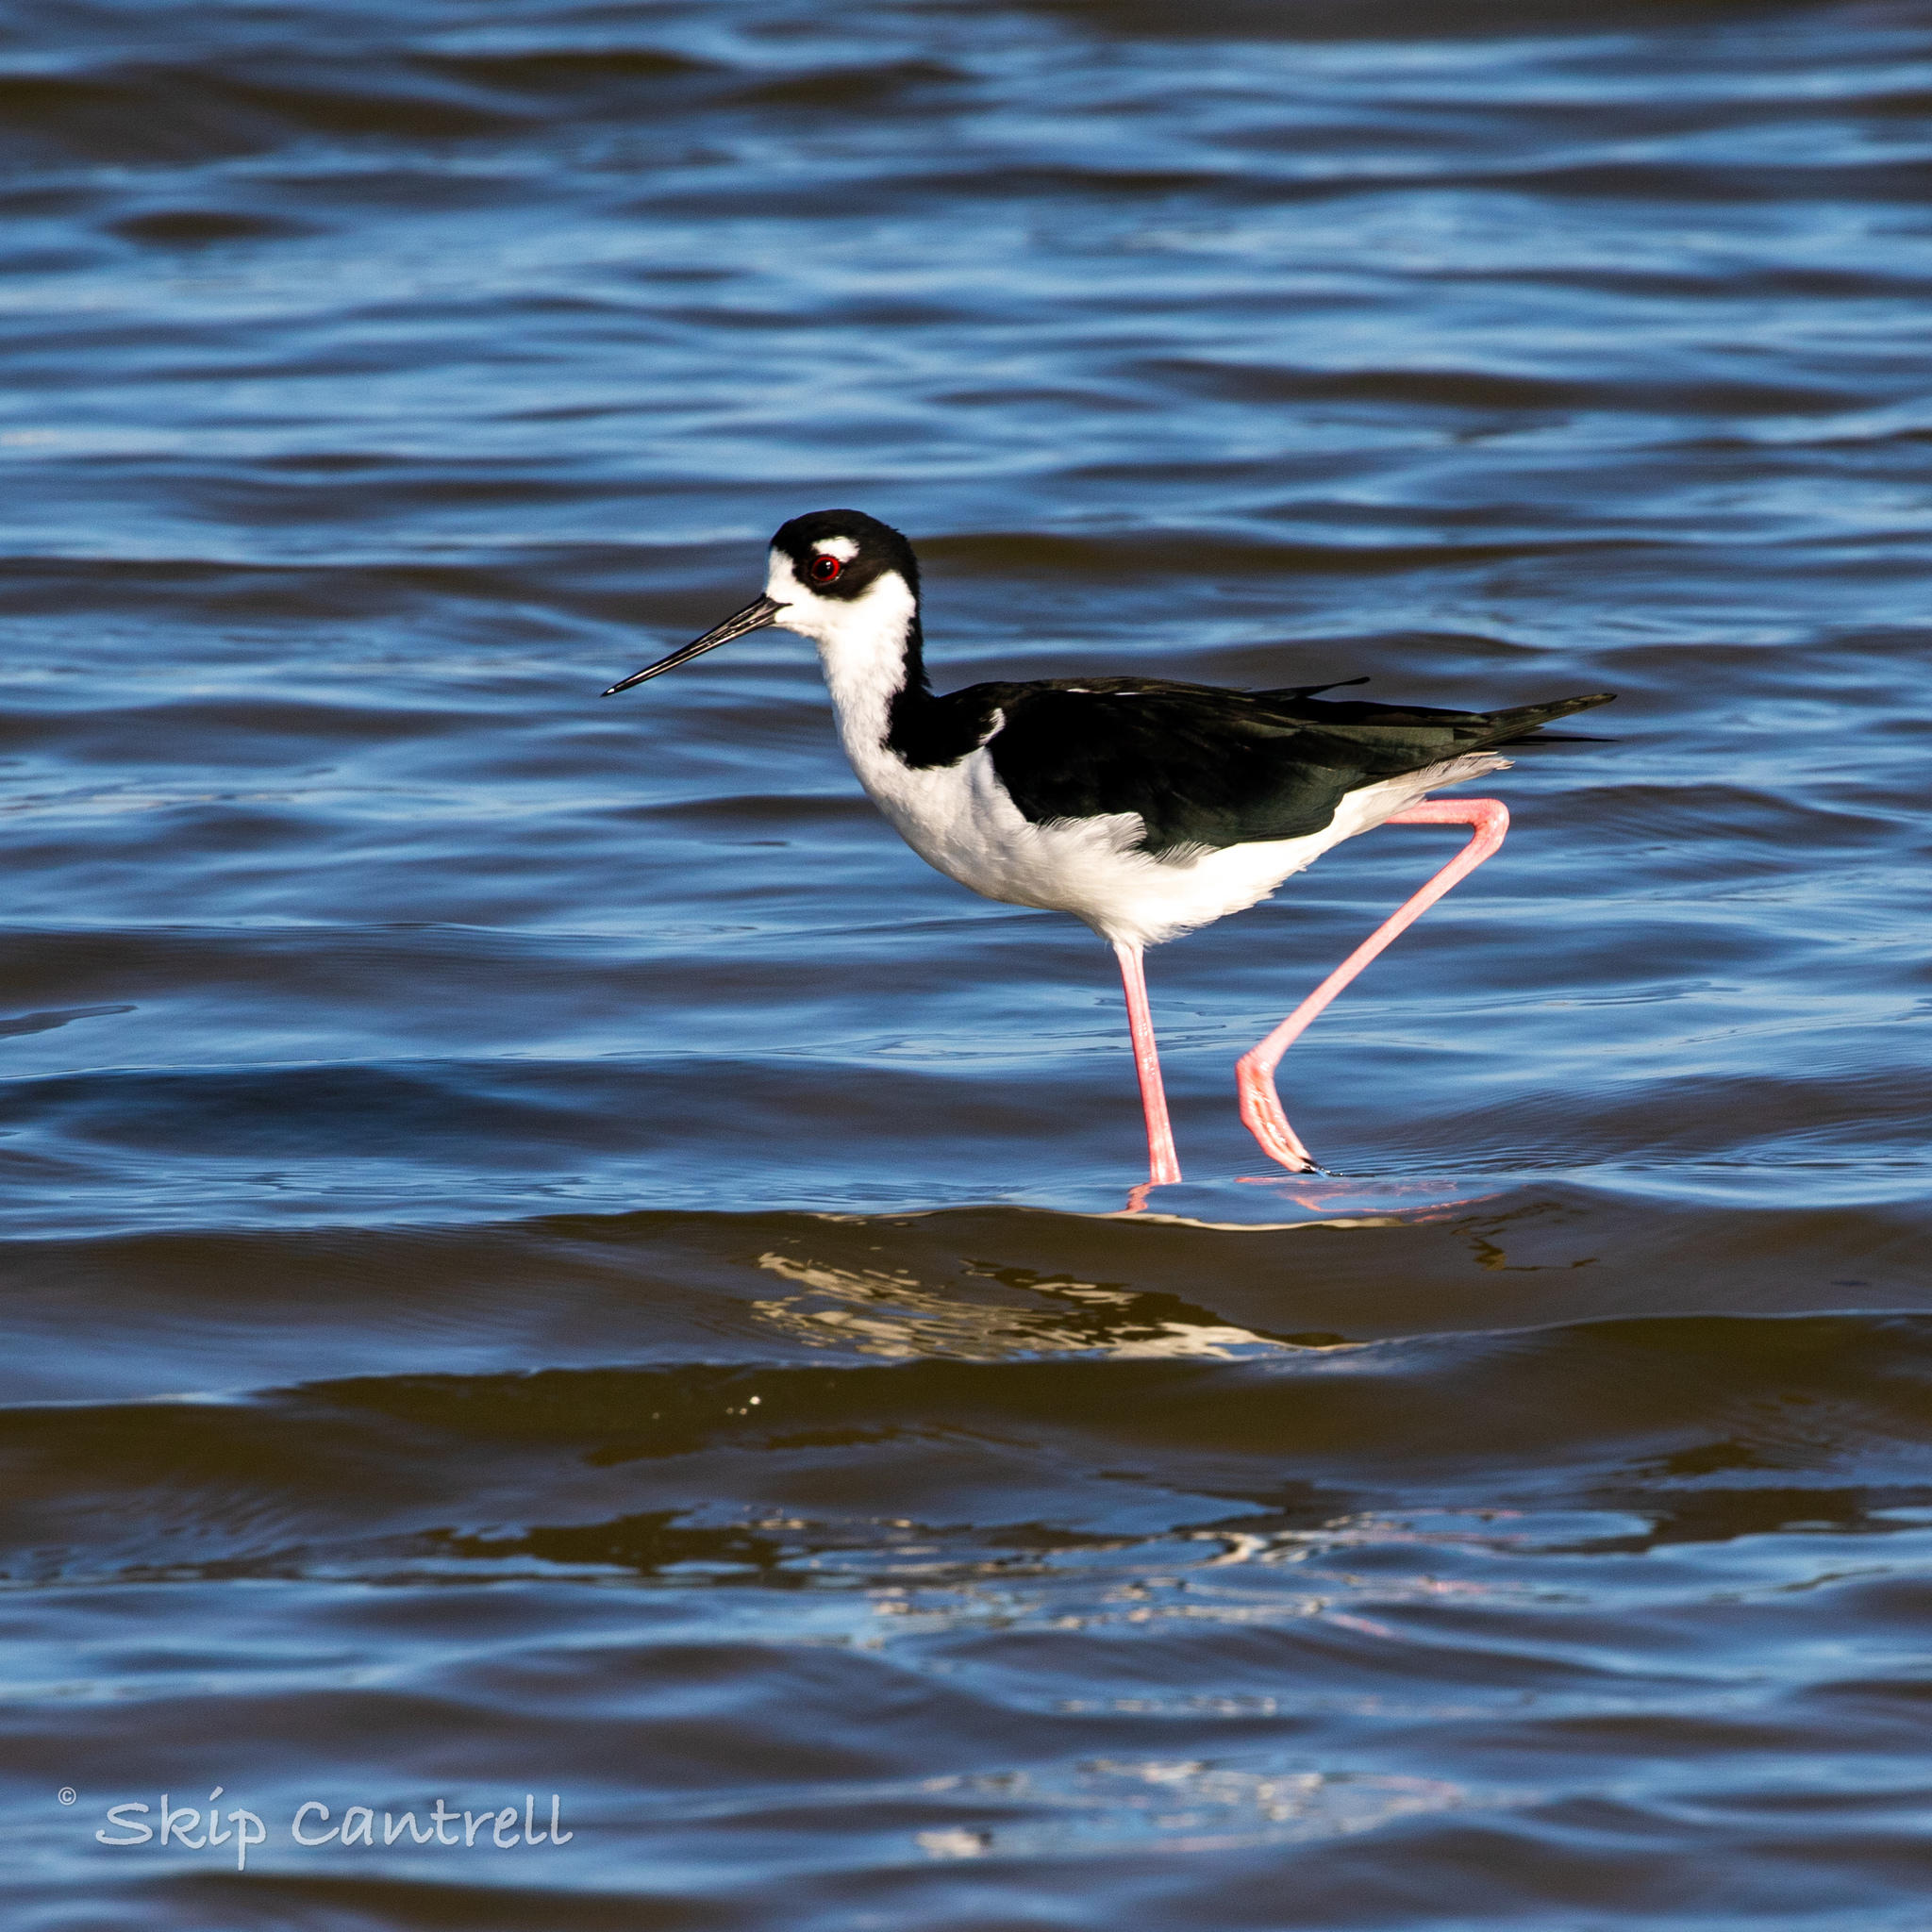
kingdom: Animalia
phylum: Chordata
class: Aves
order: Charadriiformes
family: Recurvirostridae
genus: Himantopus
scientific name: Himantopus mexicanus
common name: Black-necked stilt
